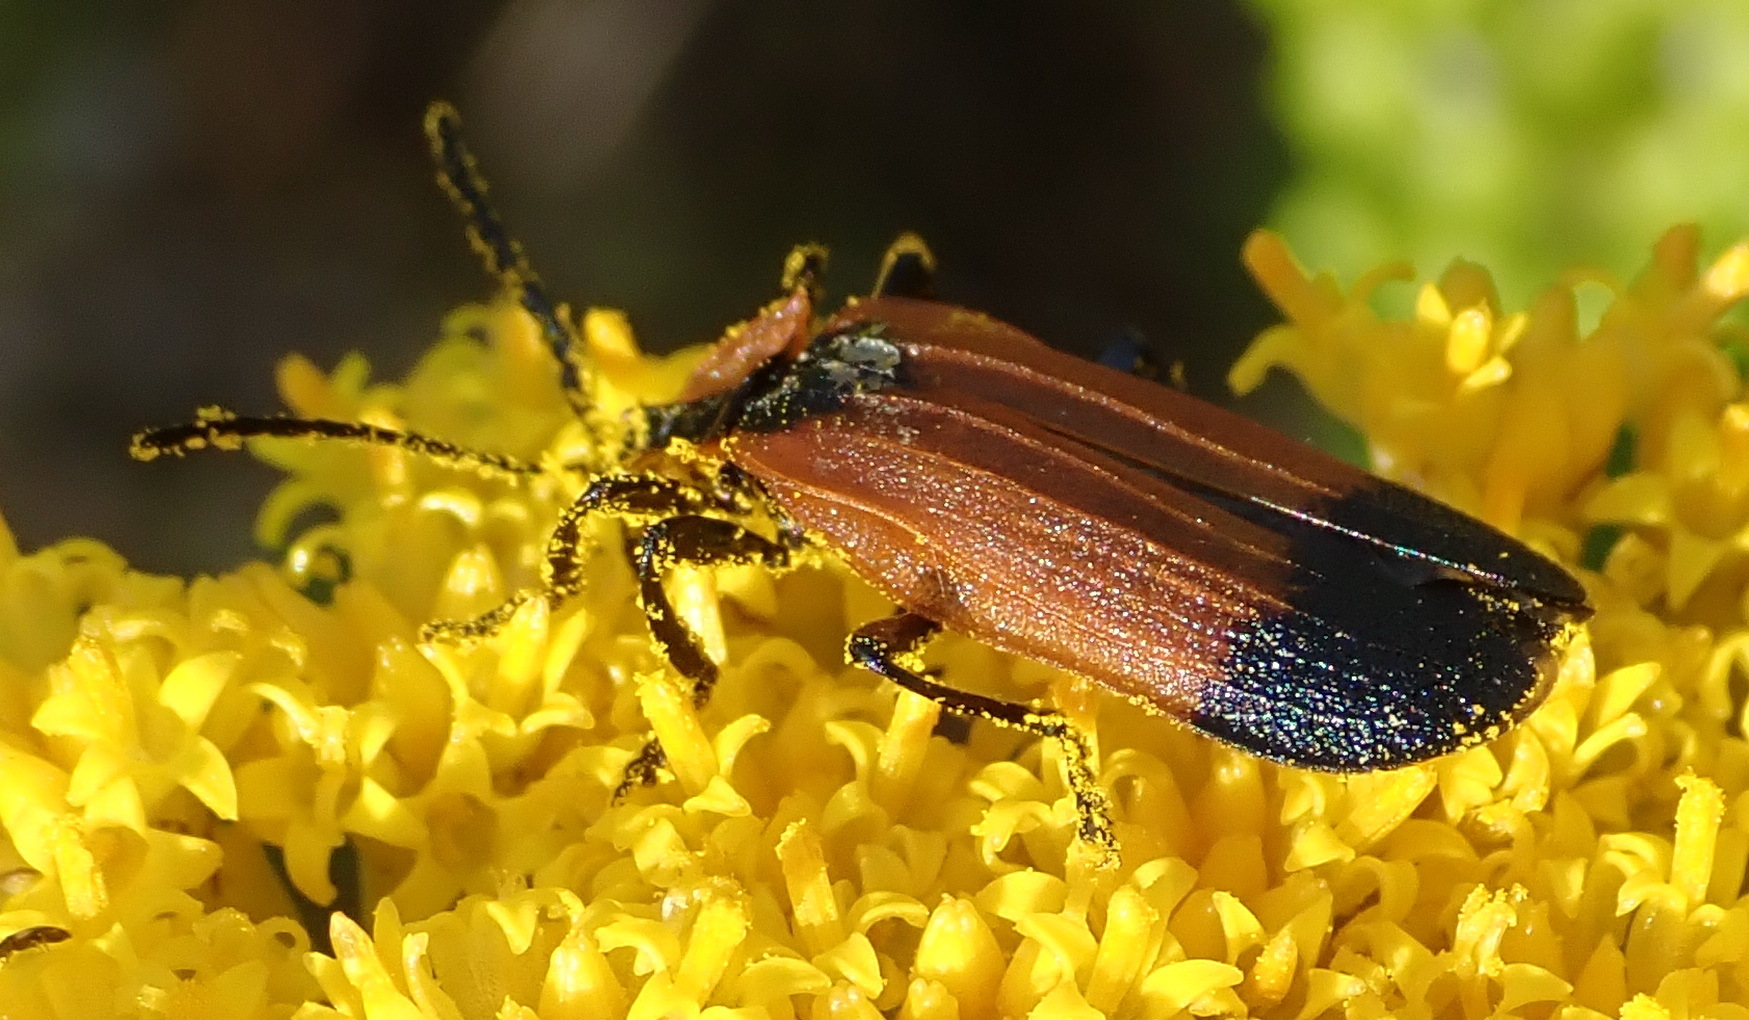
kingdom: Animalia
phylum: Arthropoda
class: Insecta
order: Coleoptera
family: Lycidae
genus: Lycus
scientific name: Lycus
